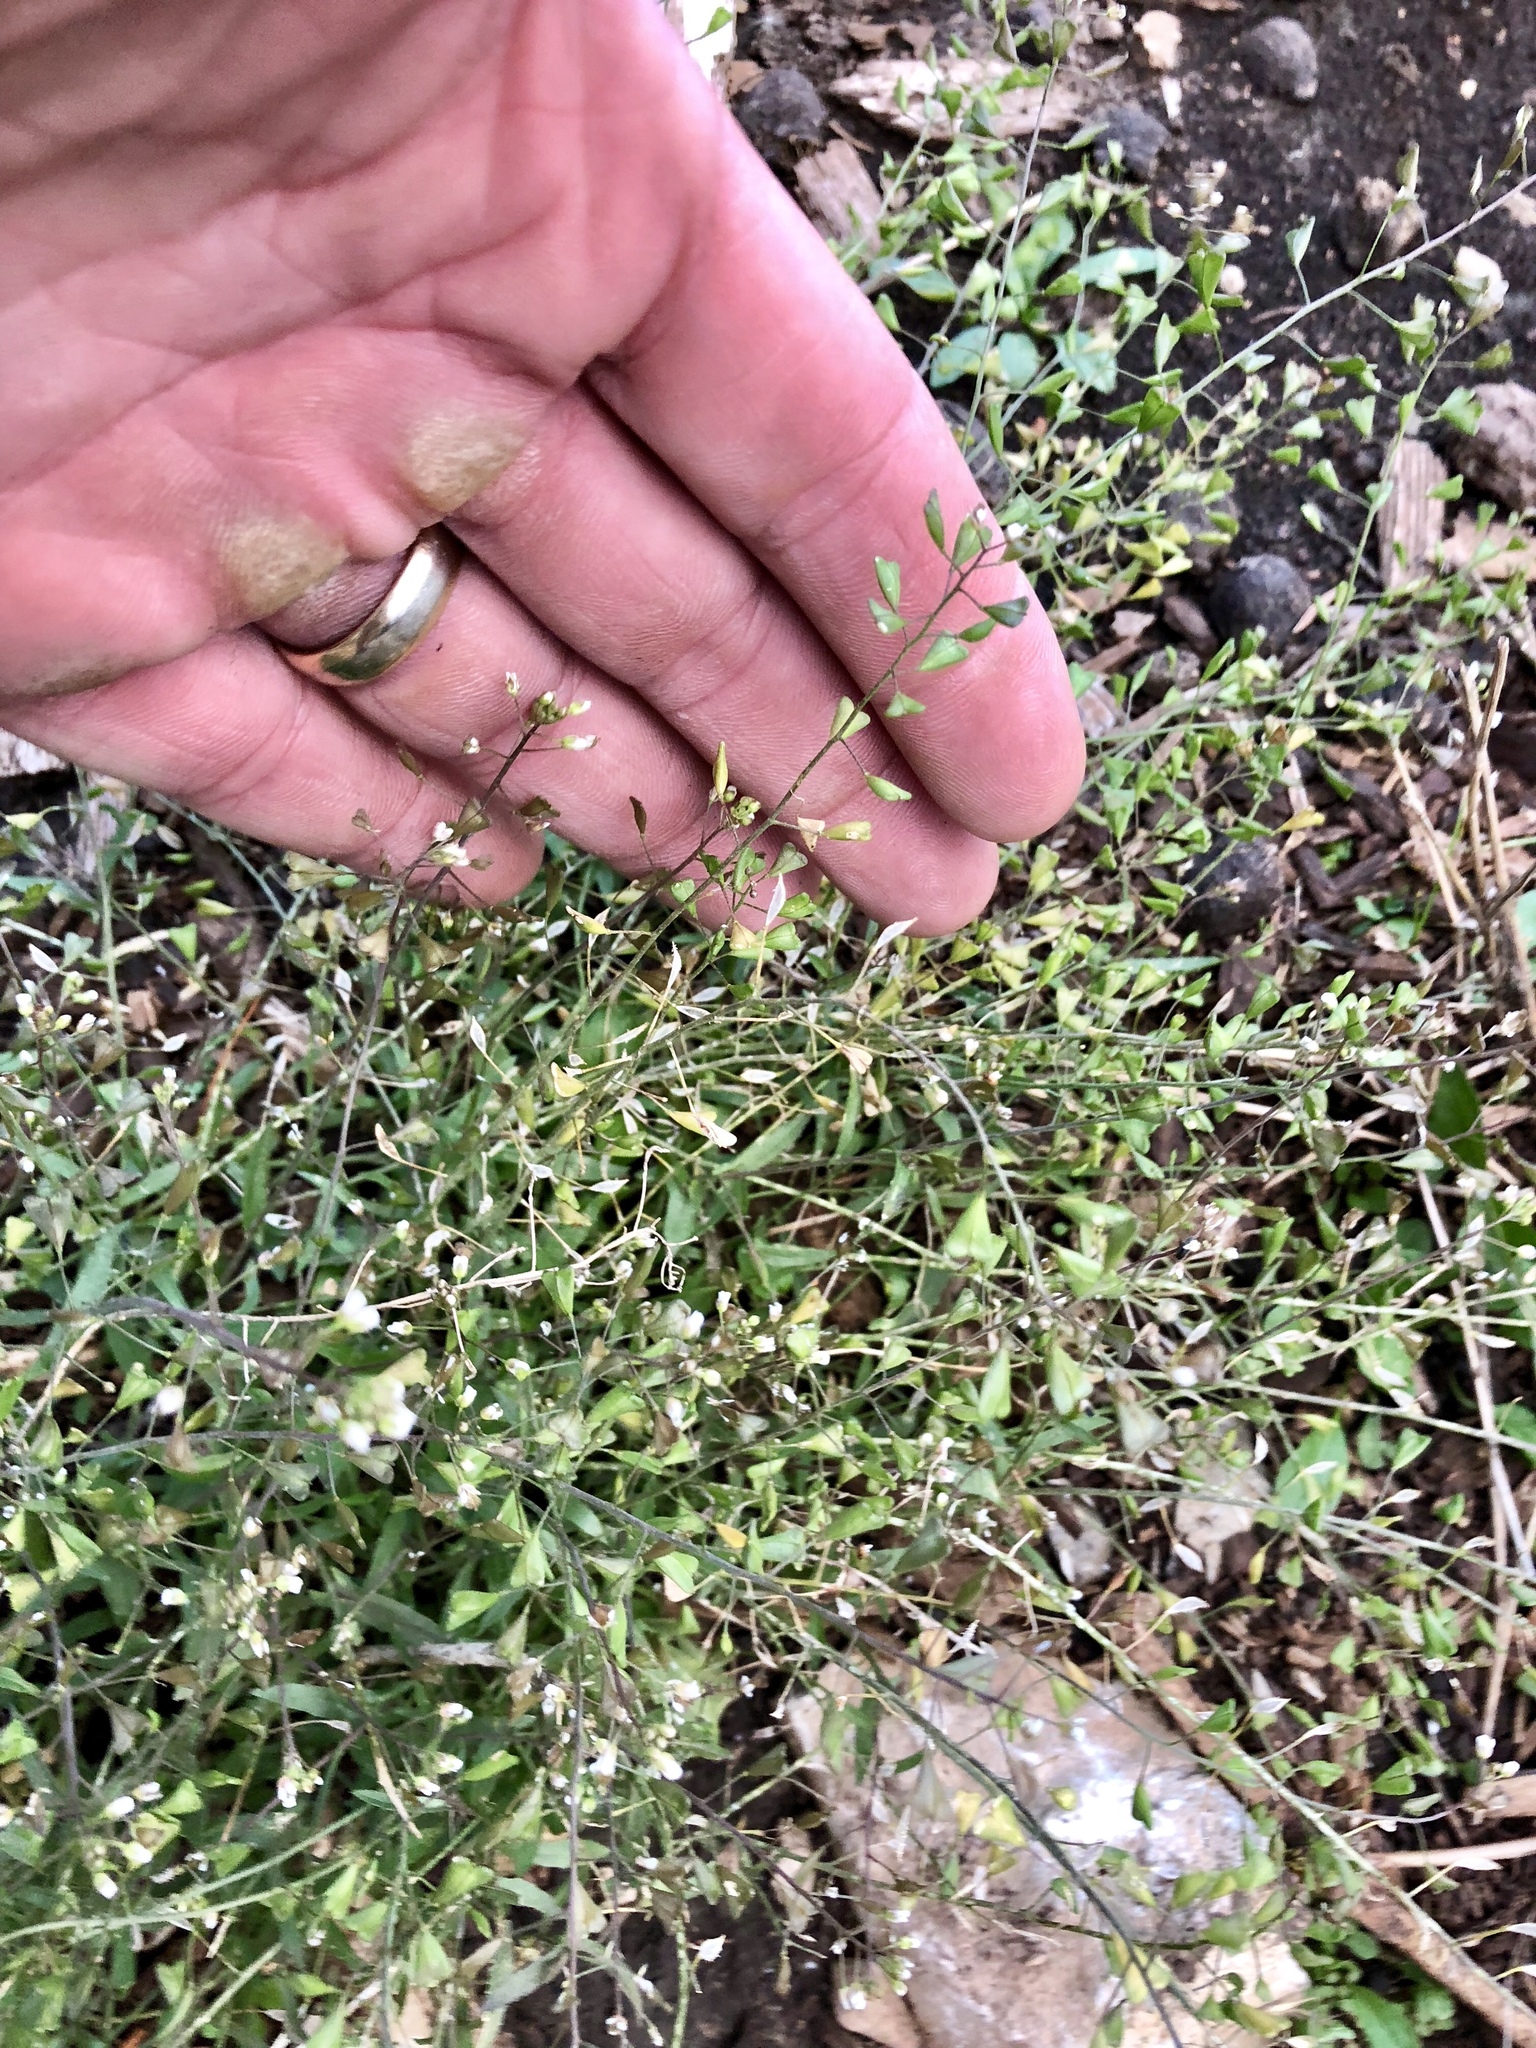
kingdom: Plantae
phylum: Tracheophyta
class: Magnoliopsida
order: Brassicales
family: Brassicaceae
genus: Capsella
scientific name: Capsella bursa-pastoris
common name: Shepherd's purse
